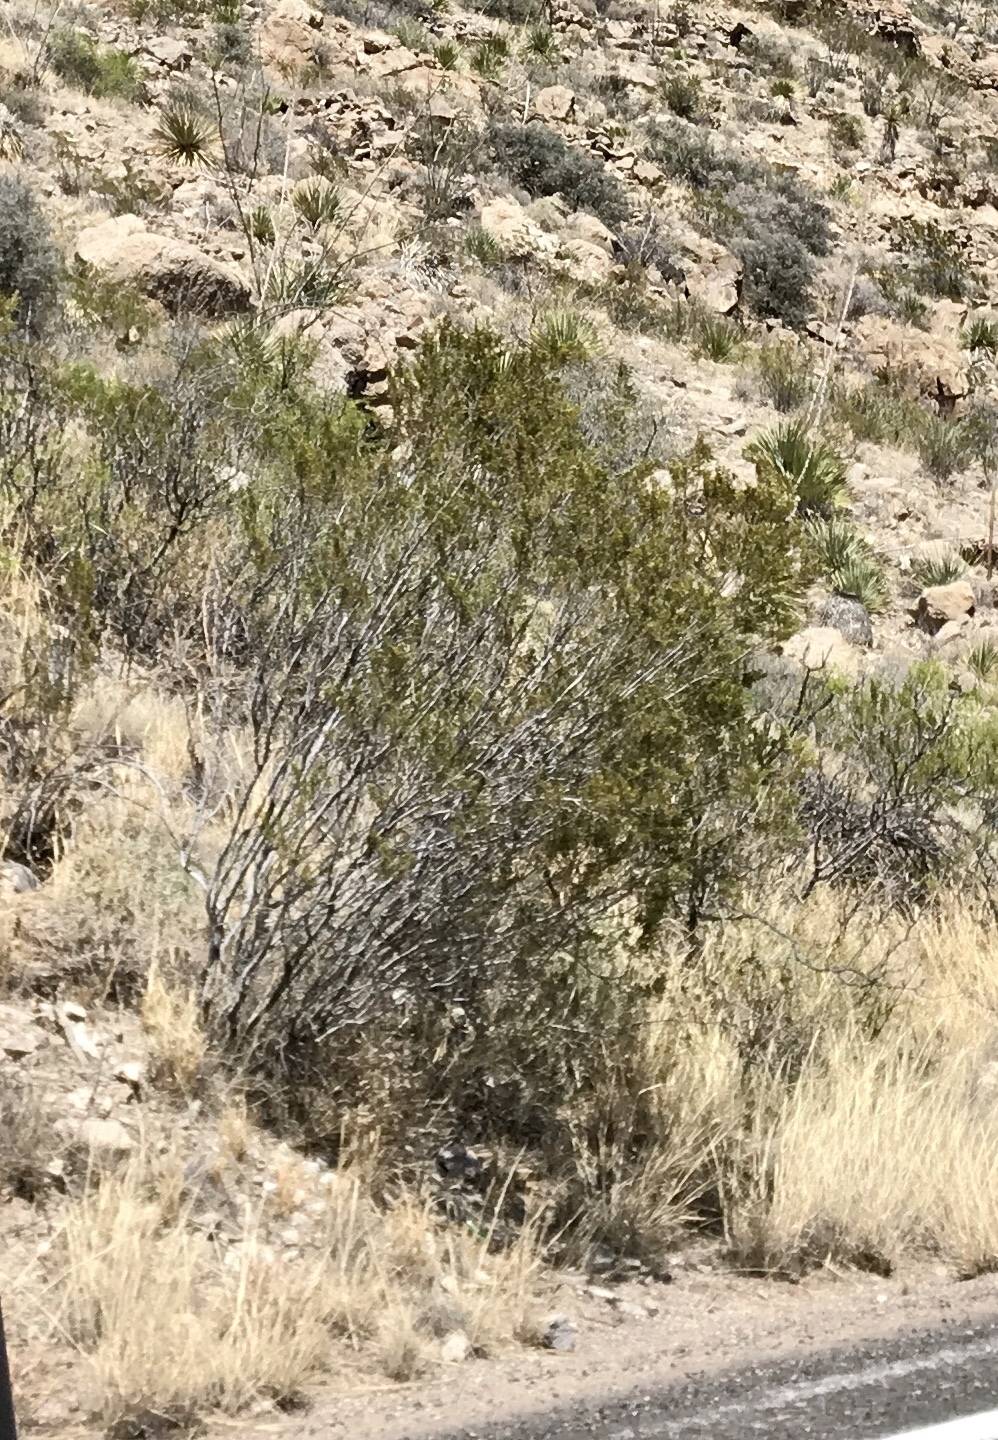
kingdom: Plantae
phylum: Tracheophyta
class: Magnoliopsida
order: Zygophyllales
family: Zygophyllaceae
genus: Larrea
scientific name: Larrea tridentata
